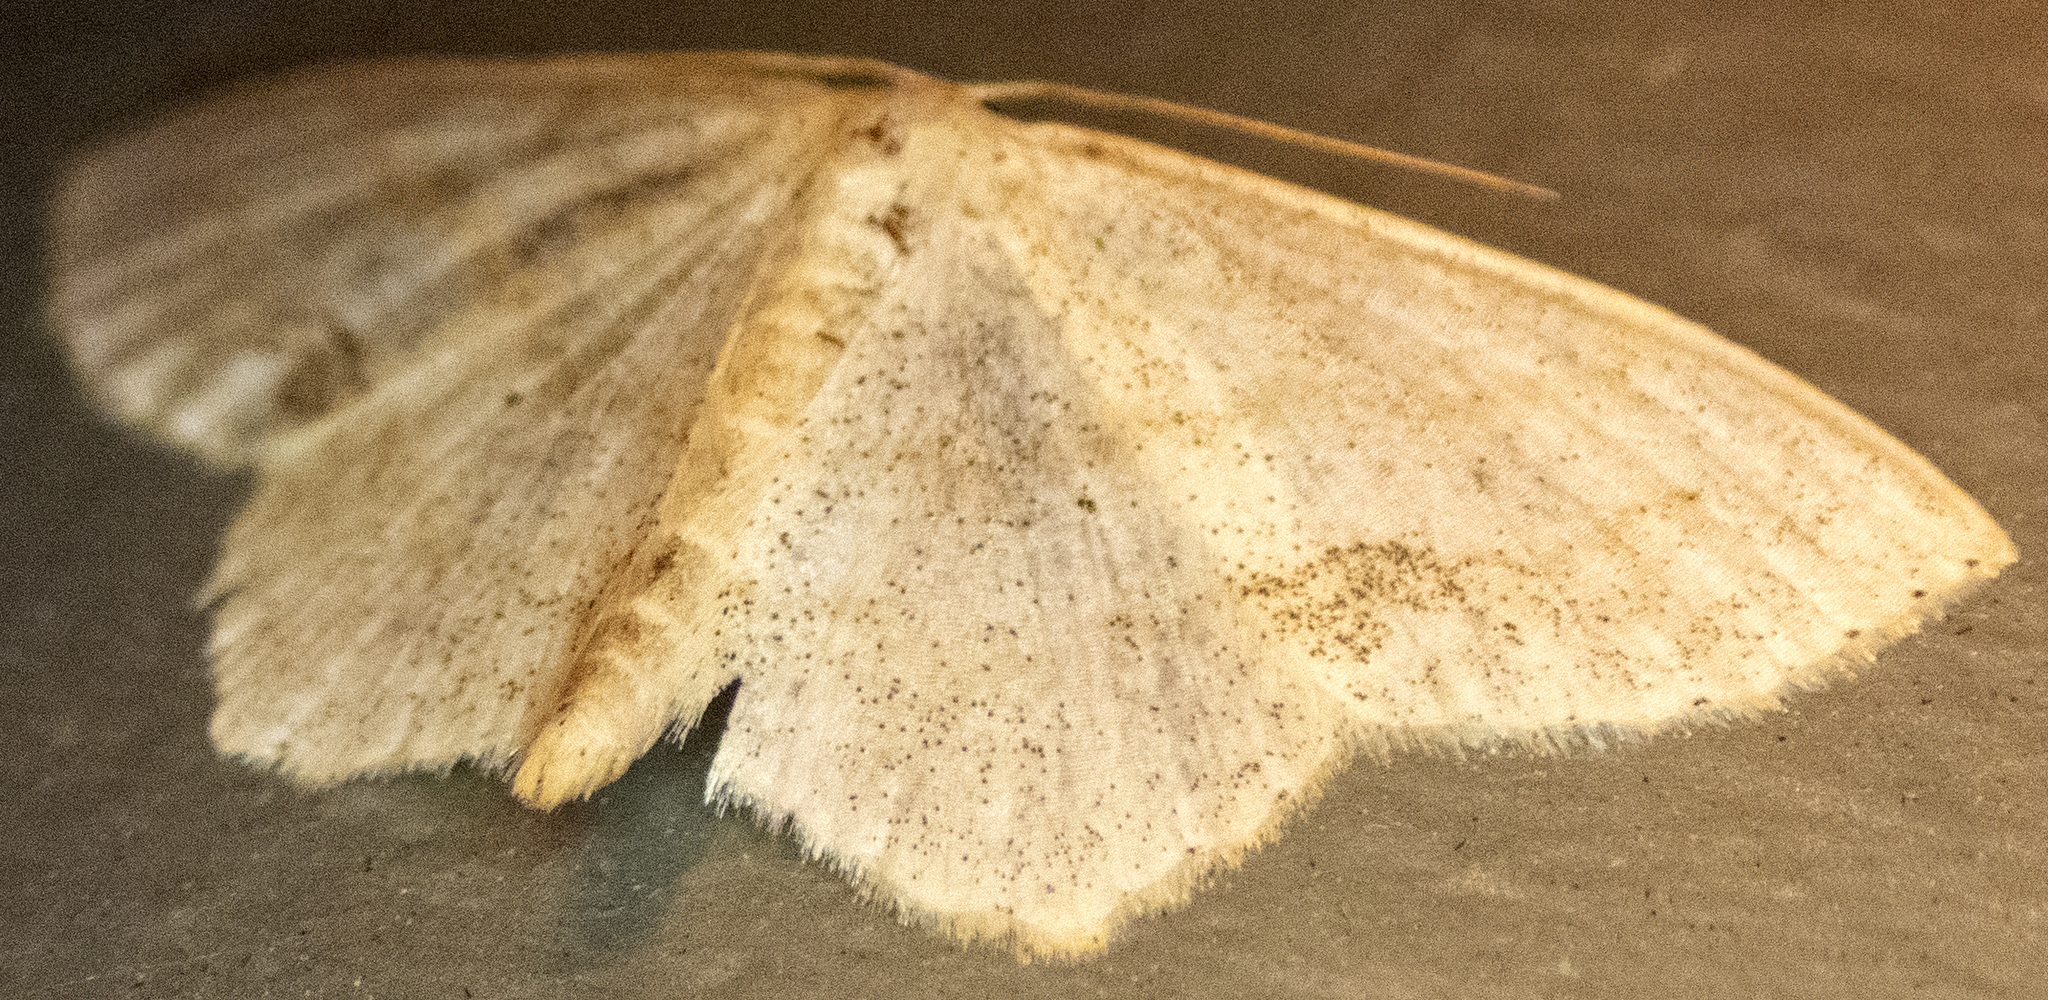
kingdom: Animalia
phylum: Arthropoda
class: Insecta
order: Lepidoptera
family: Geometridae
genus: Scopula
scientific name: Scopula limboundata
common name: Large lace border
